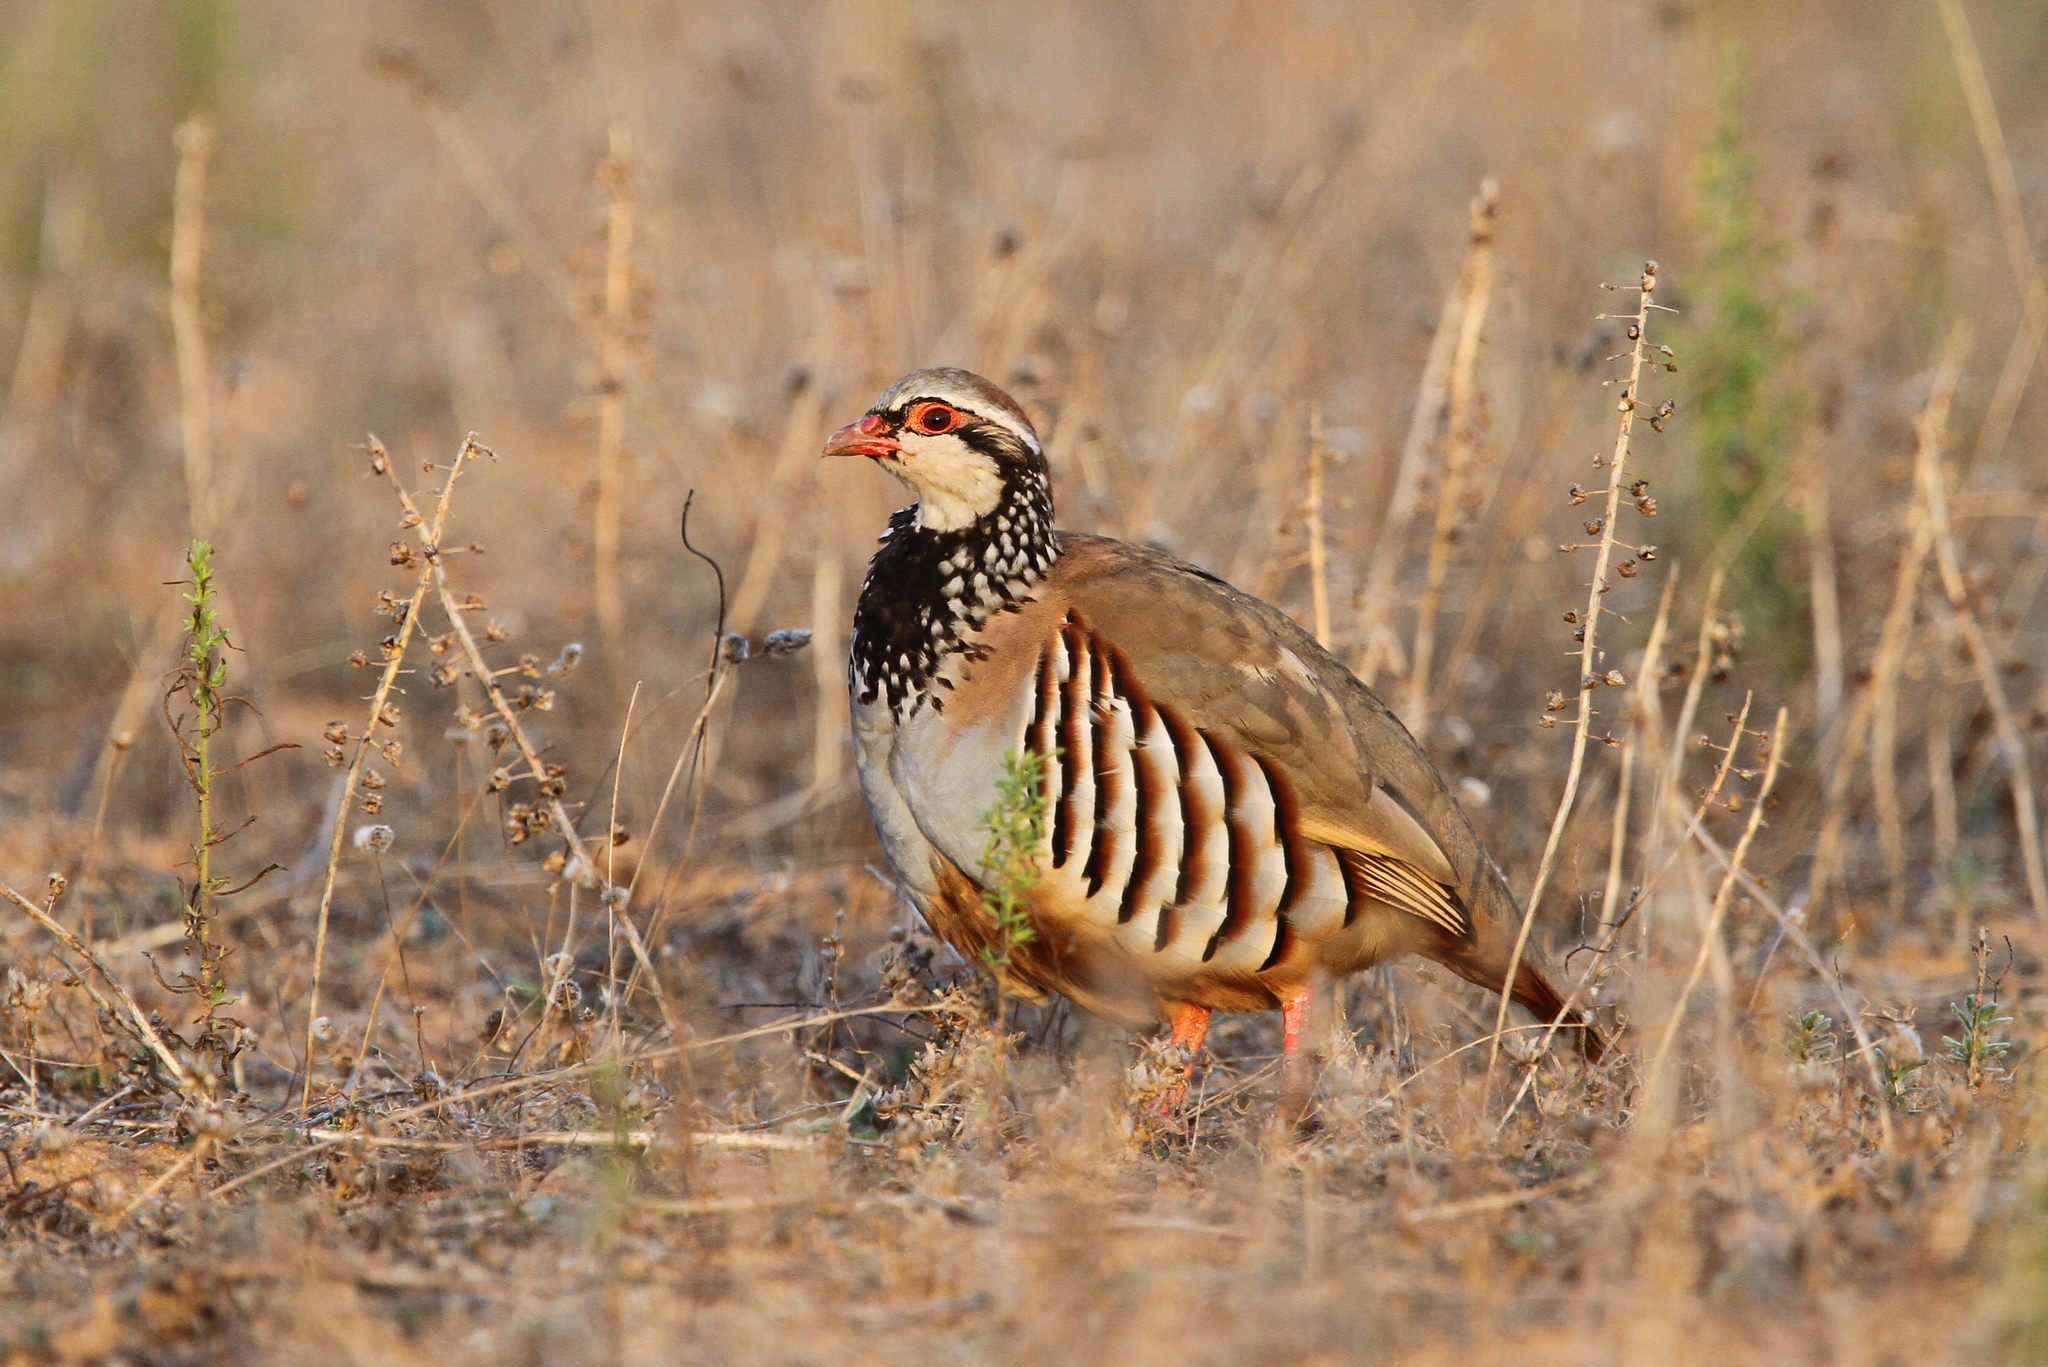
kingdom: Animalia
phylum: Chordata
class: Aves
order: Galliformes
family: Phasianidae
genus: Alectoris
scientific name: Alectoris rufa
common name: Red-legged partridge
